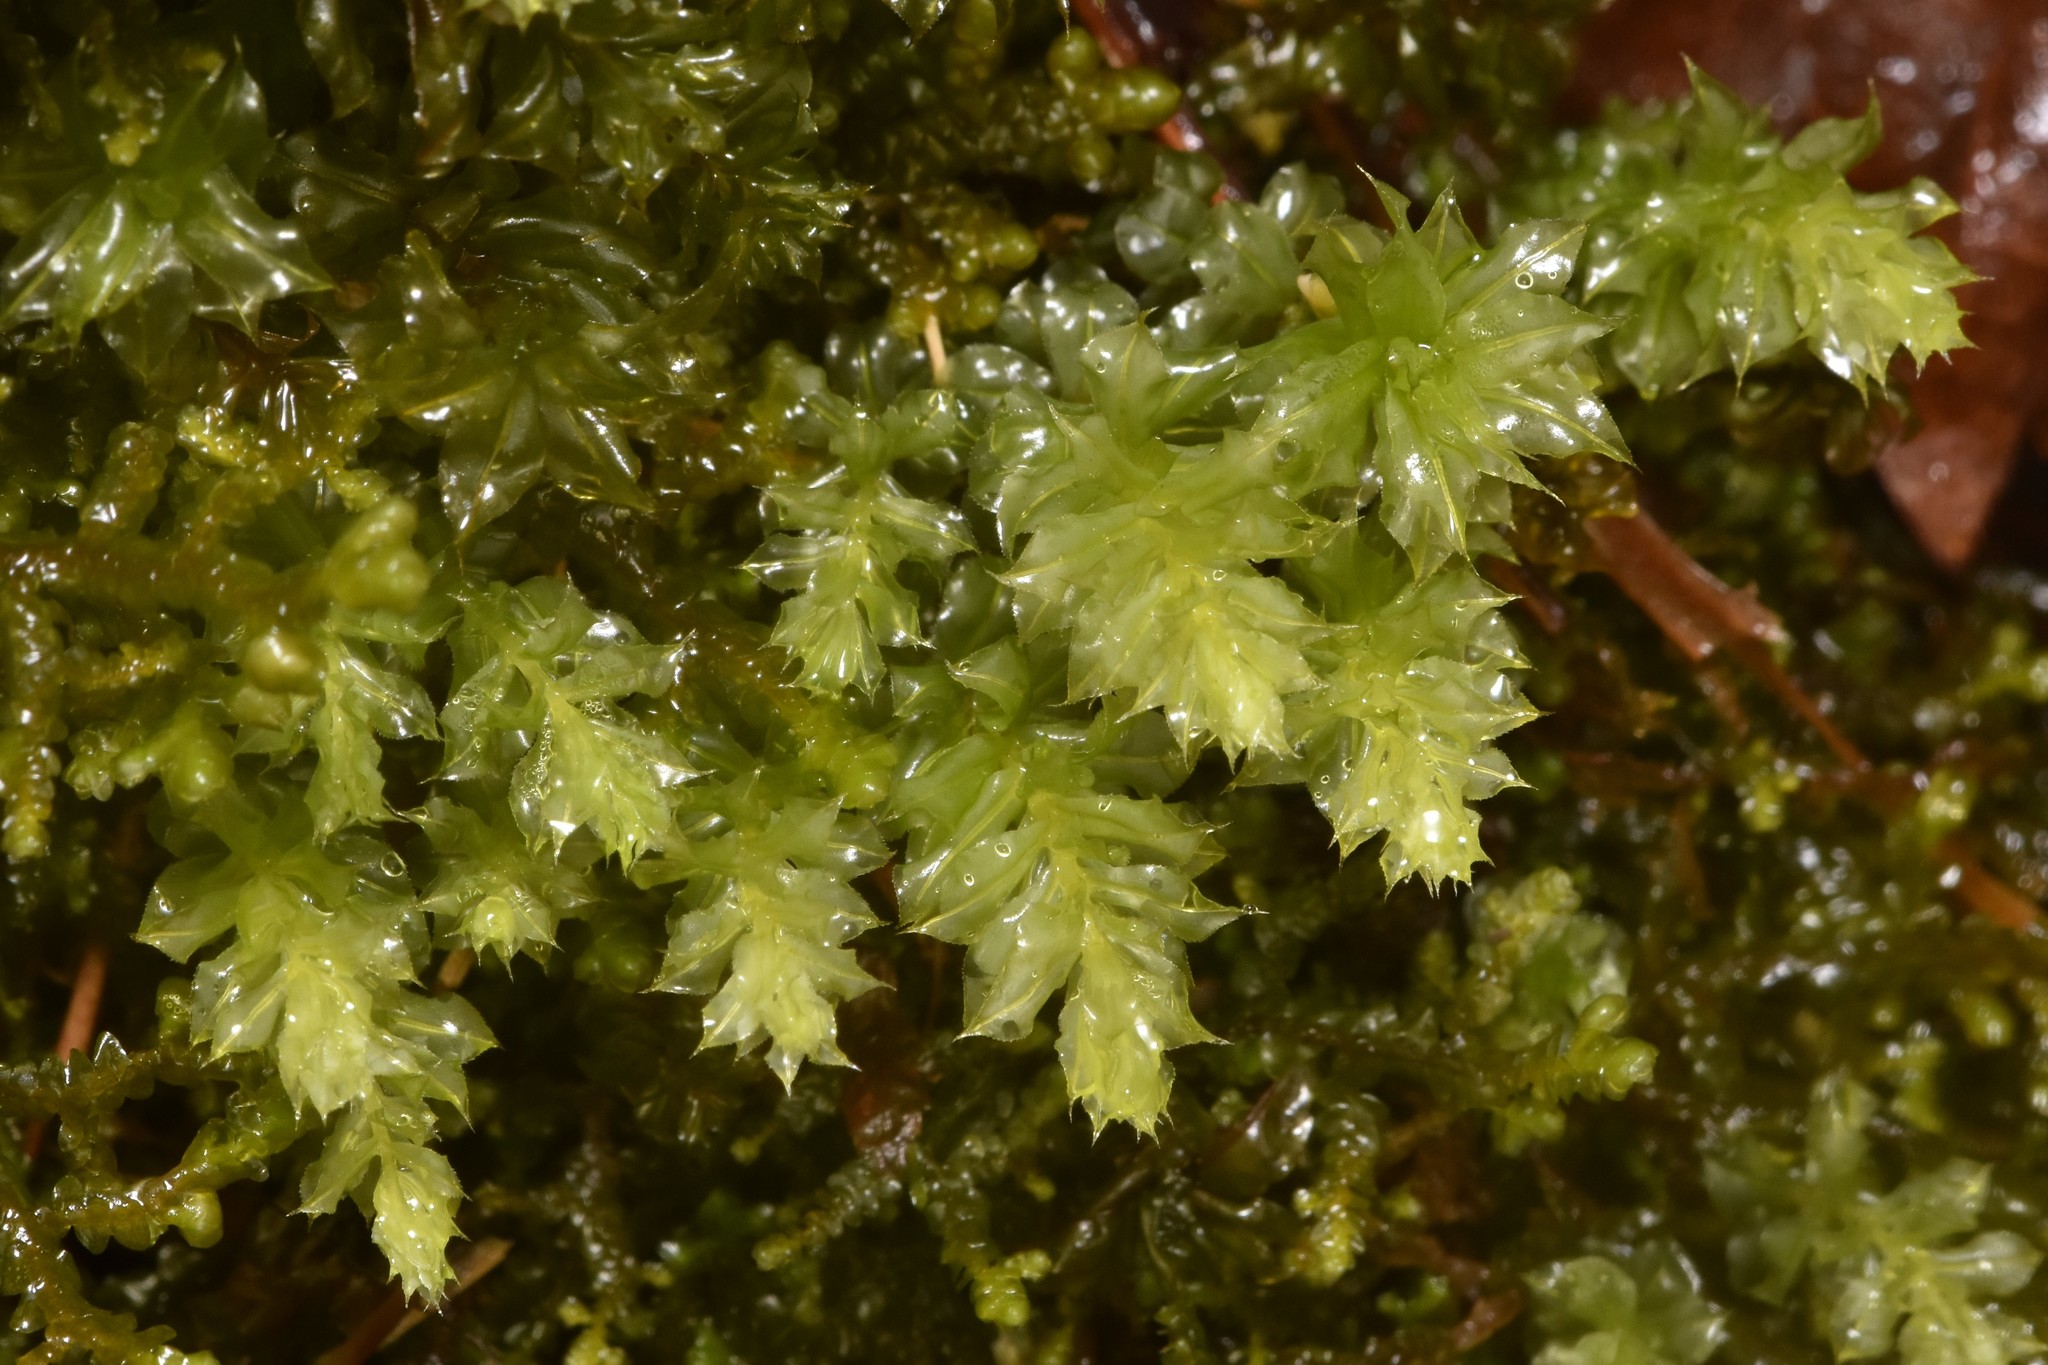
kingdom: Plantae
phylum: Bryophyta
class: Bryopsida
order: Bryales
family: Mniaceae
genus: Plagiomnium
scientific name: Plagiomnium venustum
